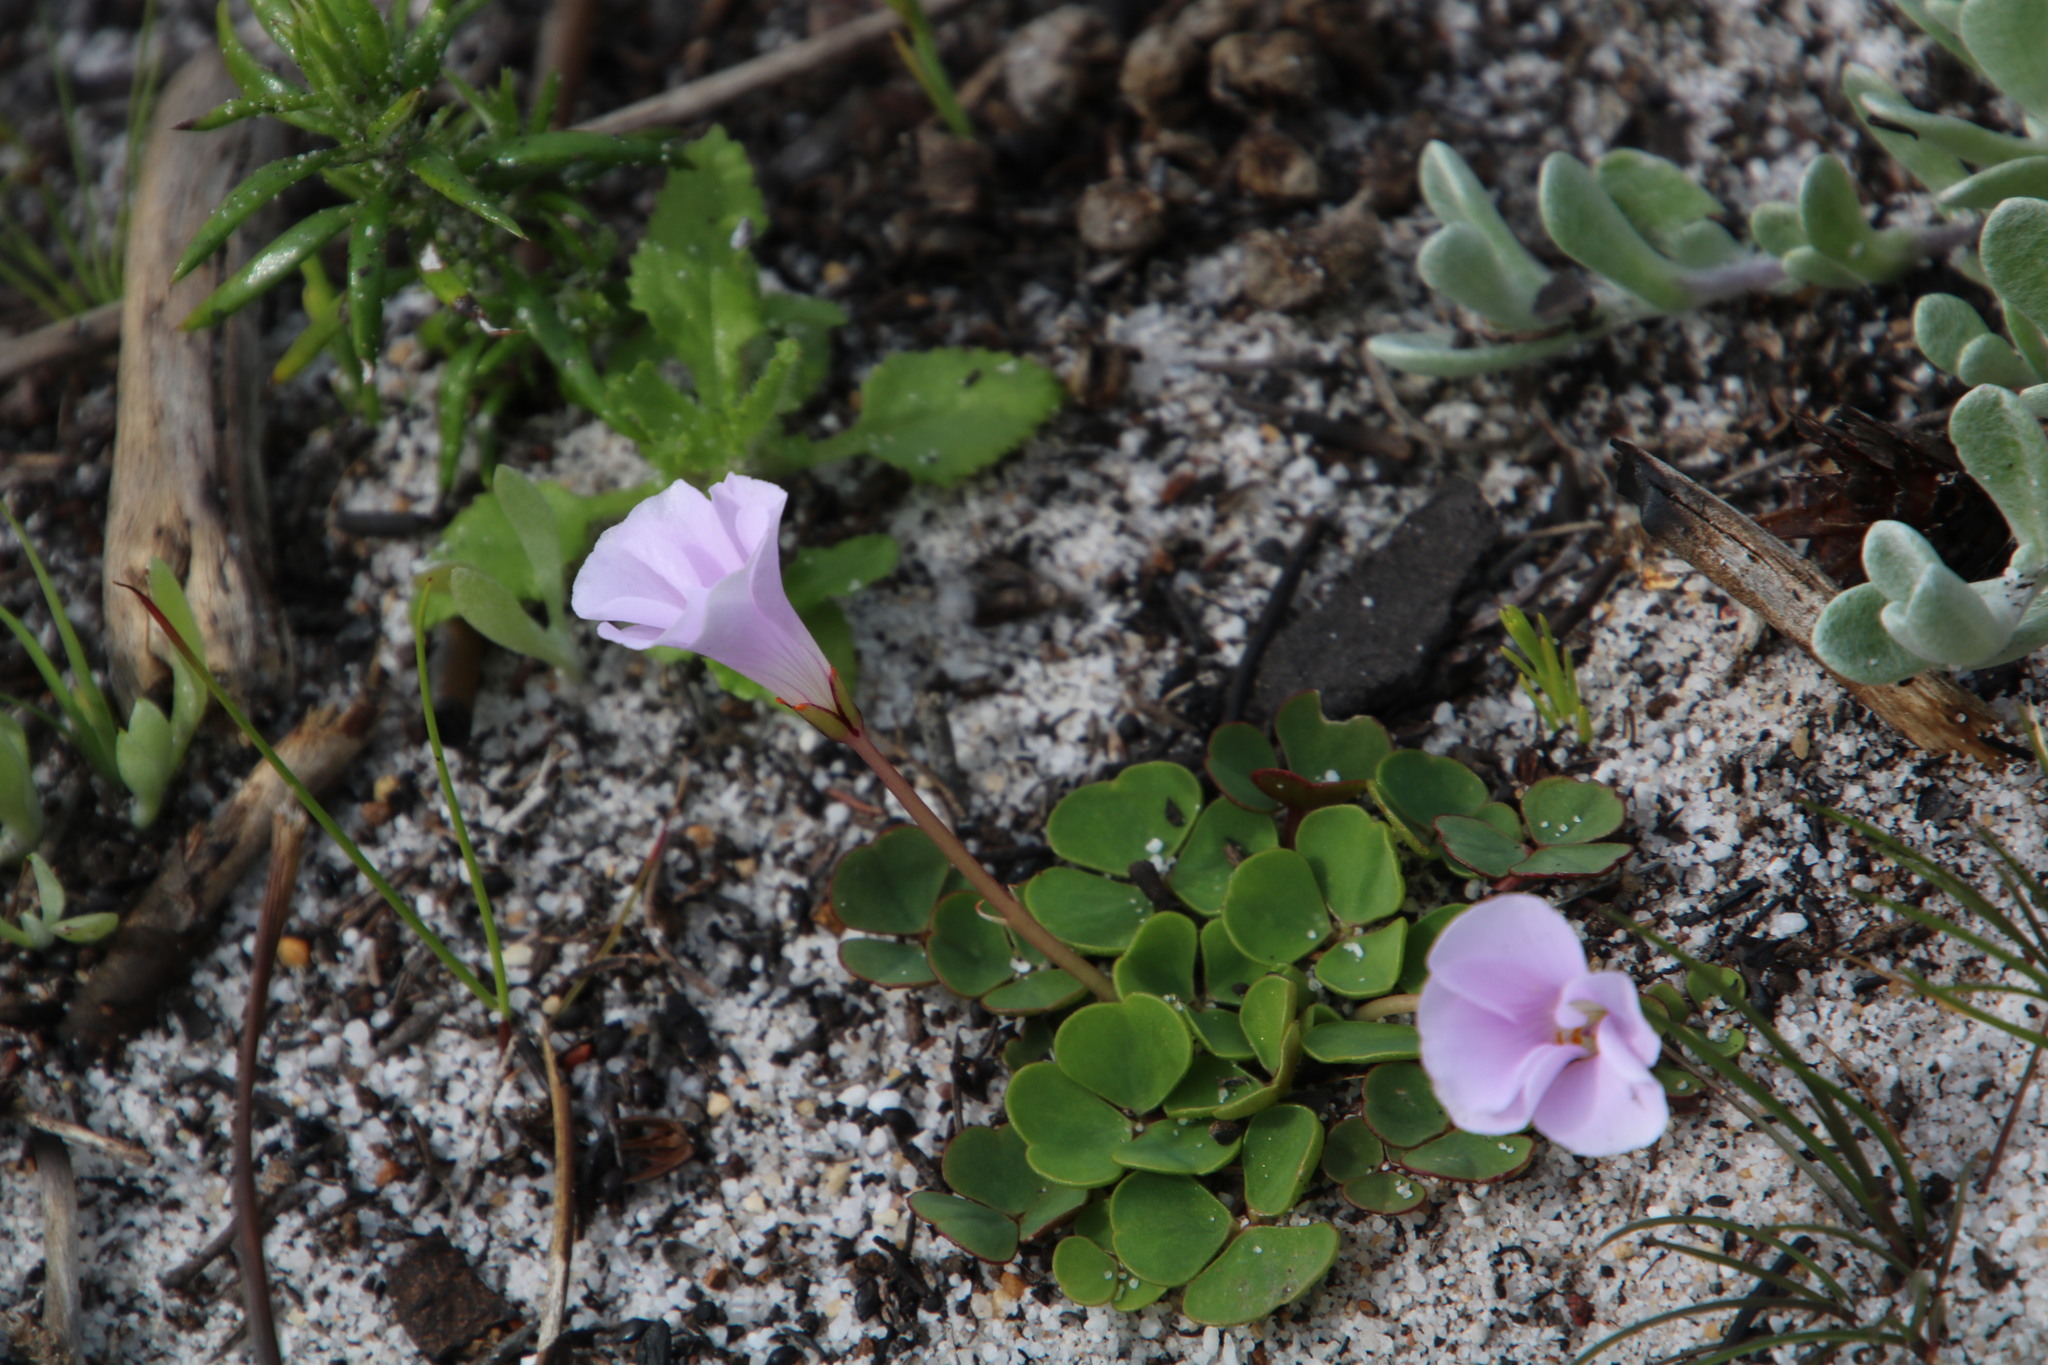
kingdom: Plantae
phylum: Tracheophyta
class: Magnoliopsida
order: Oxalidales
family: Oxalidaceae
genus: Oxalis
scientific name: Oxalis commutata
